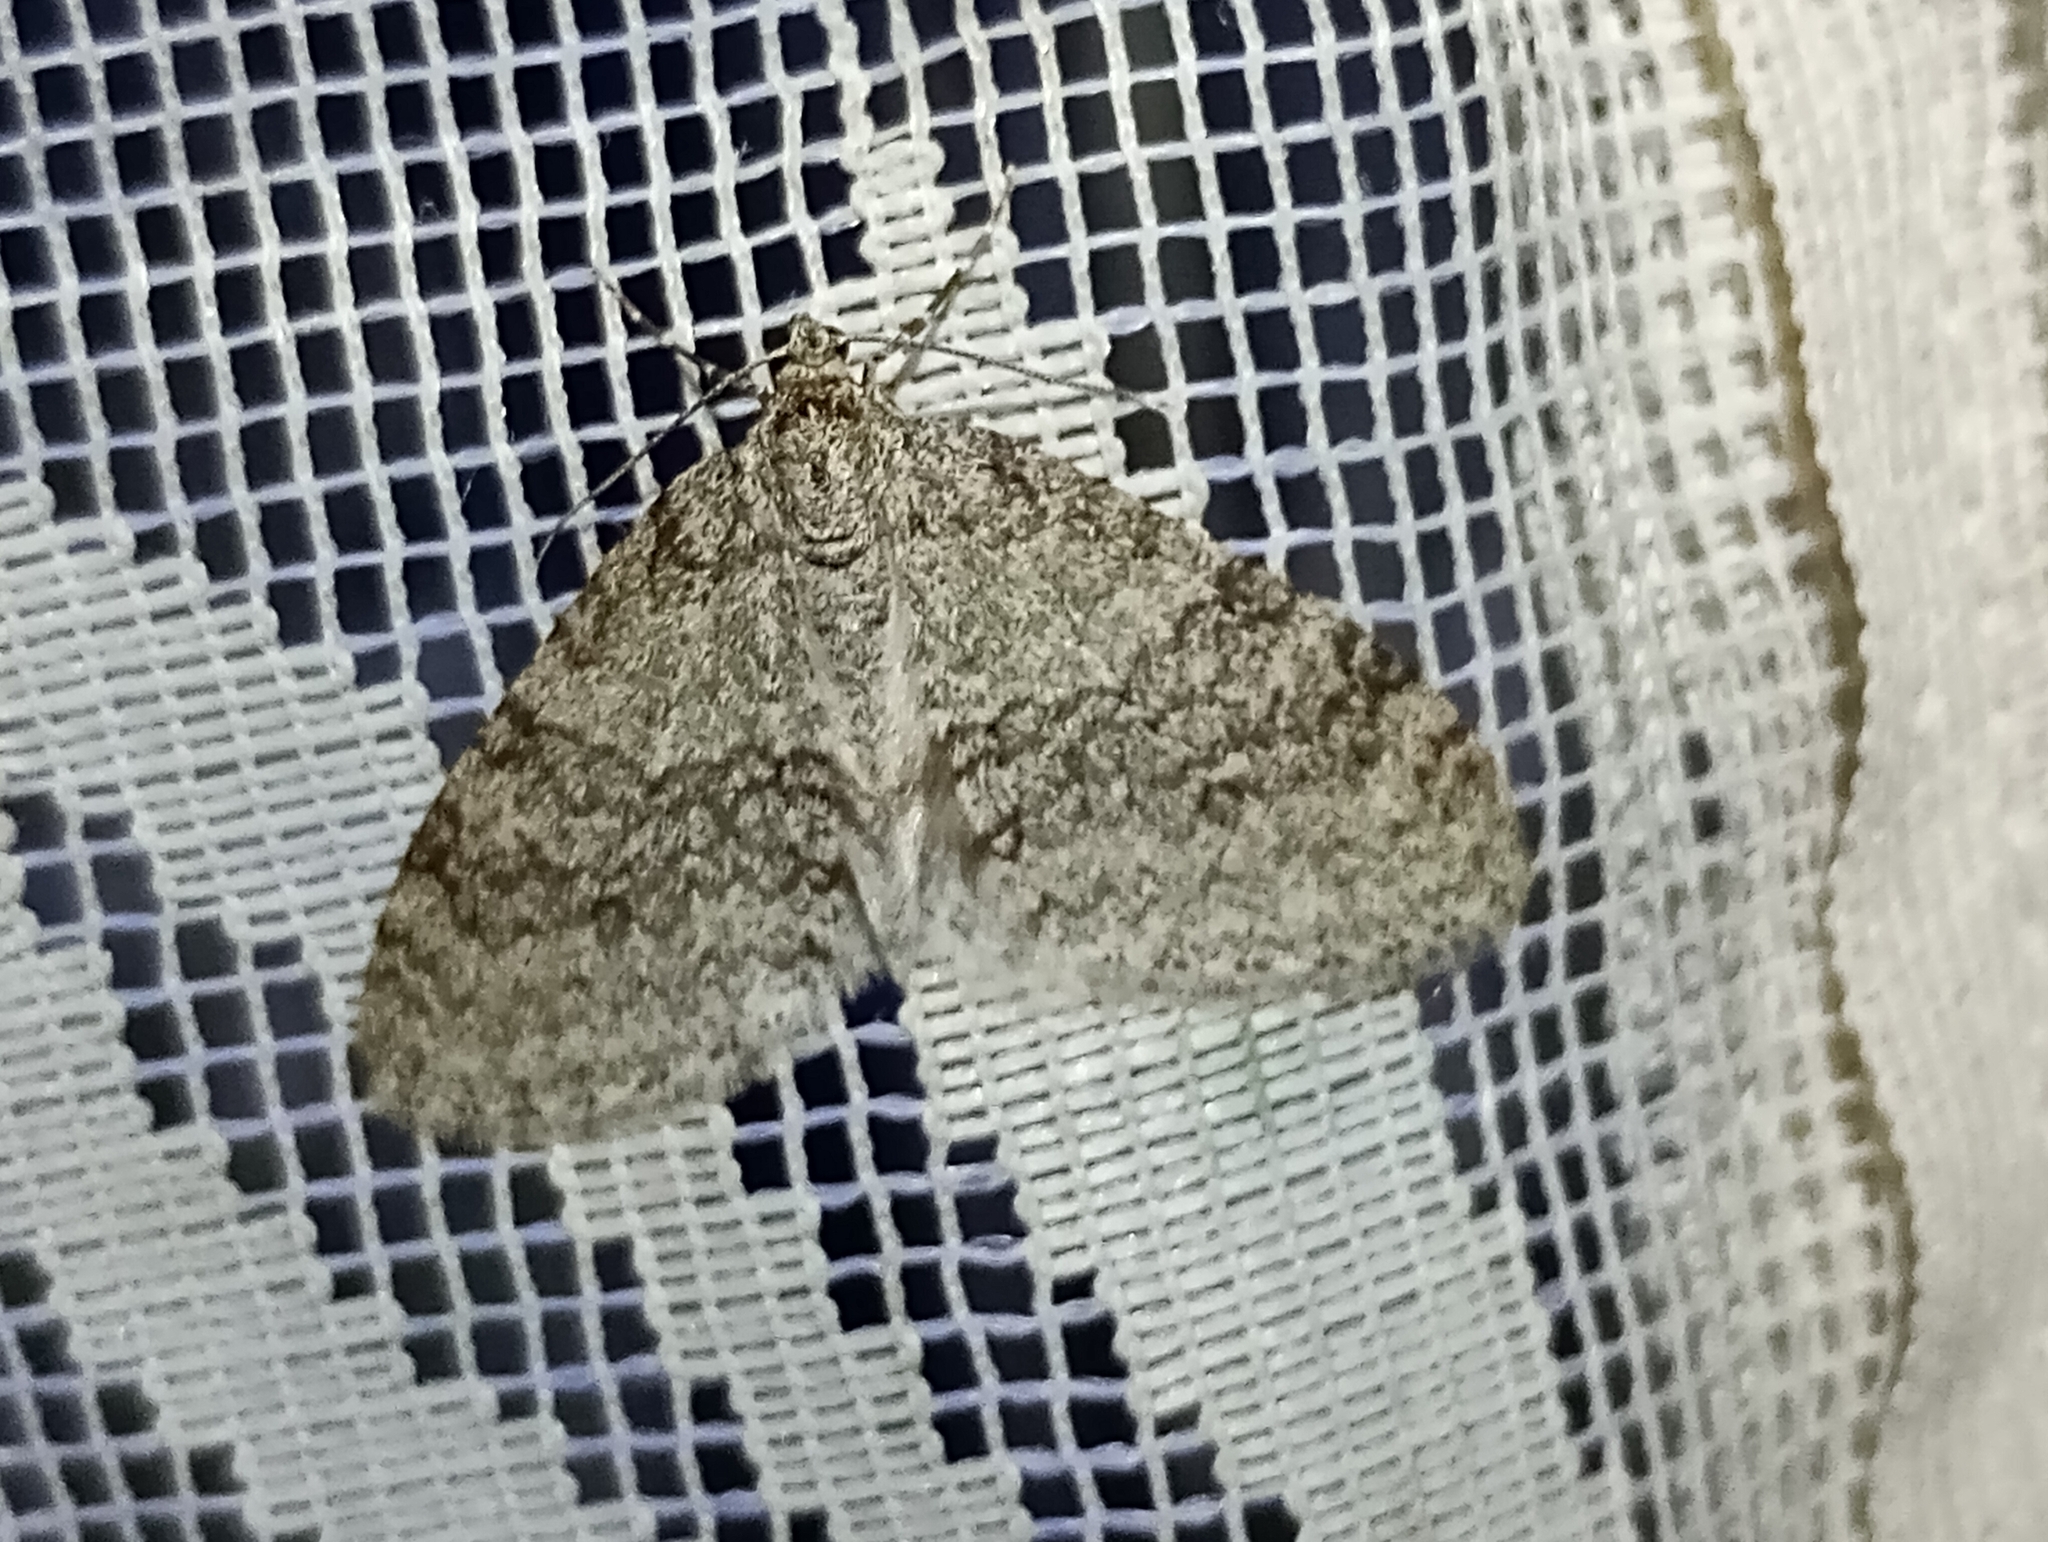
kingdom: Animalia
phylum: Arthropoda
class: Insecta
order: Lepidoptera
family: Geometridae
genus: Trichopteryx
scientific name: Trichopteryx carpinata
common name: Early tooth-striped
